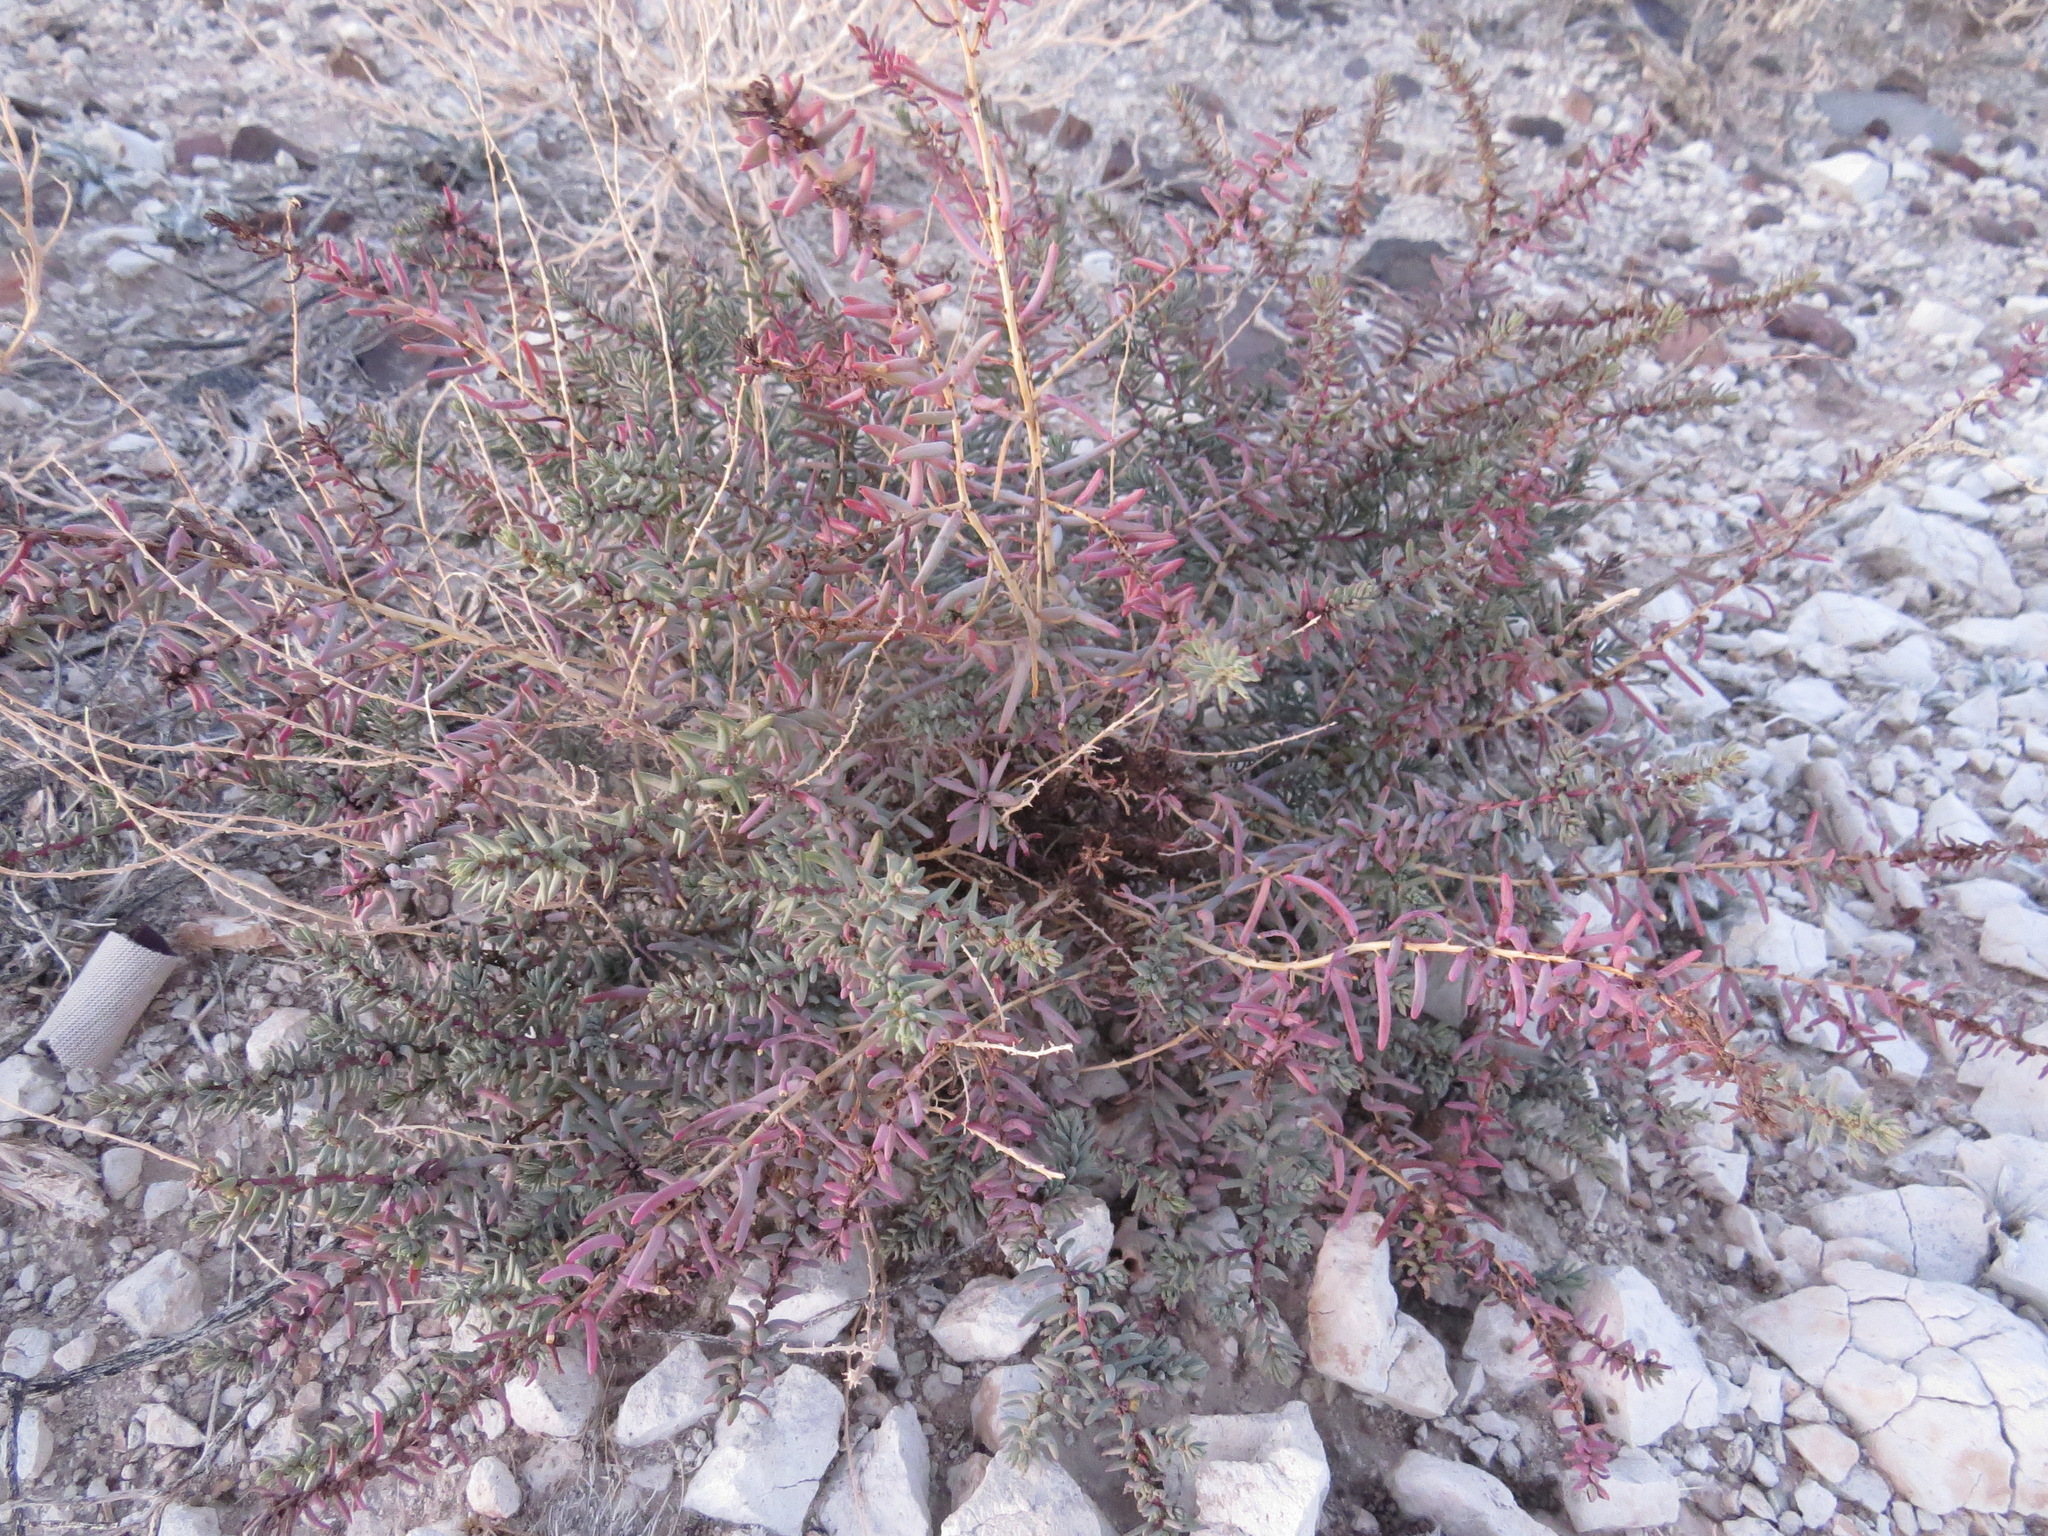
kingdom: Plantae
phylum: Tracheophyta
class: Magnoliopsida
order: Caryophyllales
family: Amaranthaceae
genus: Suaeda
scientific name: Suaeda nigra
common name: Bush seepweed
